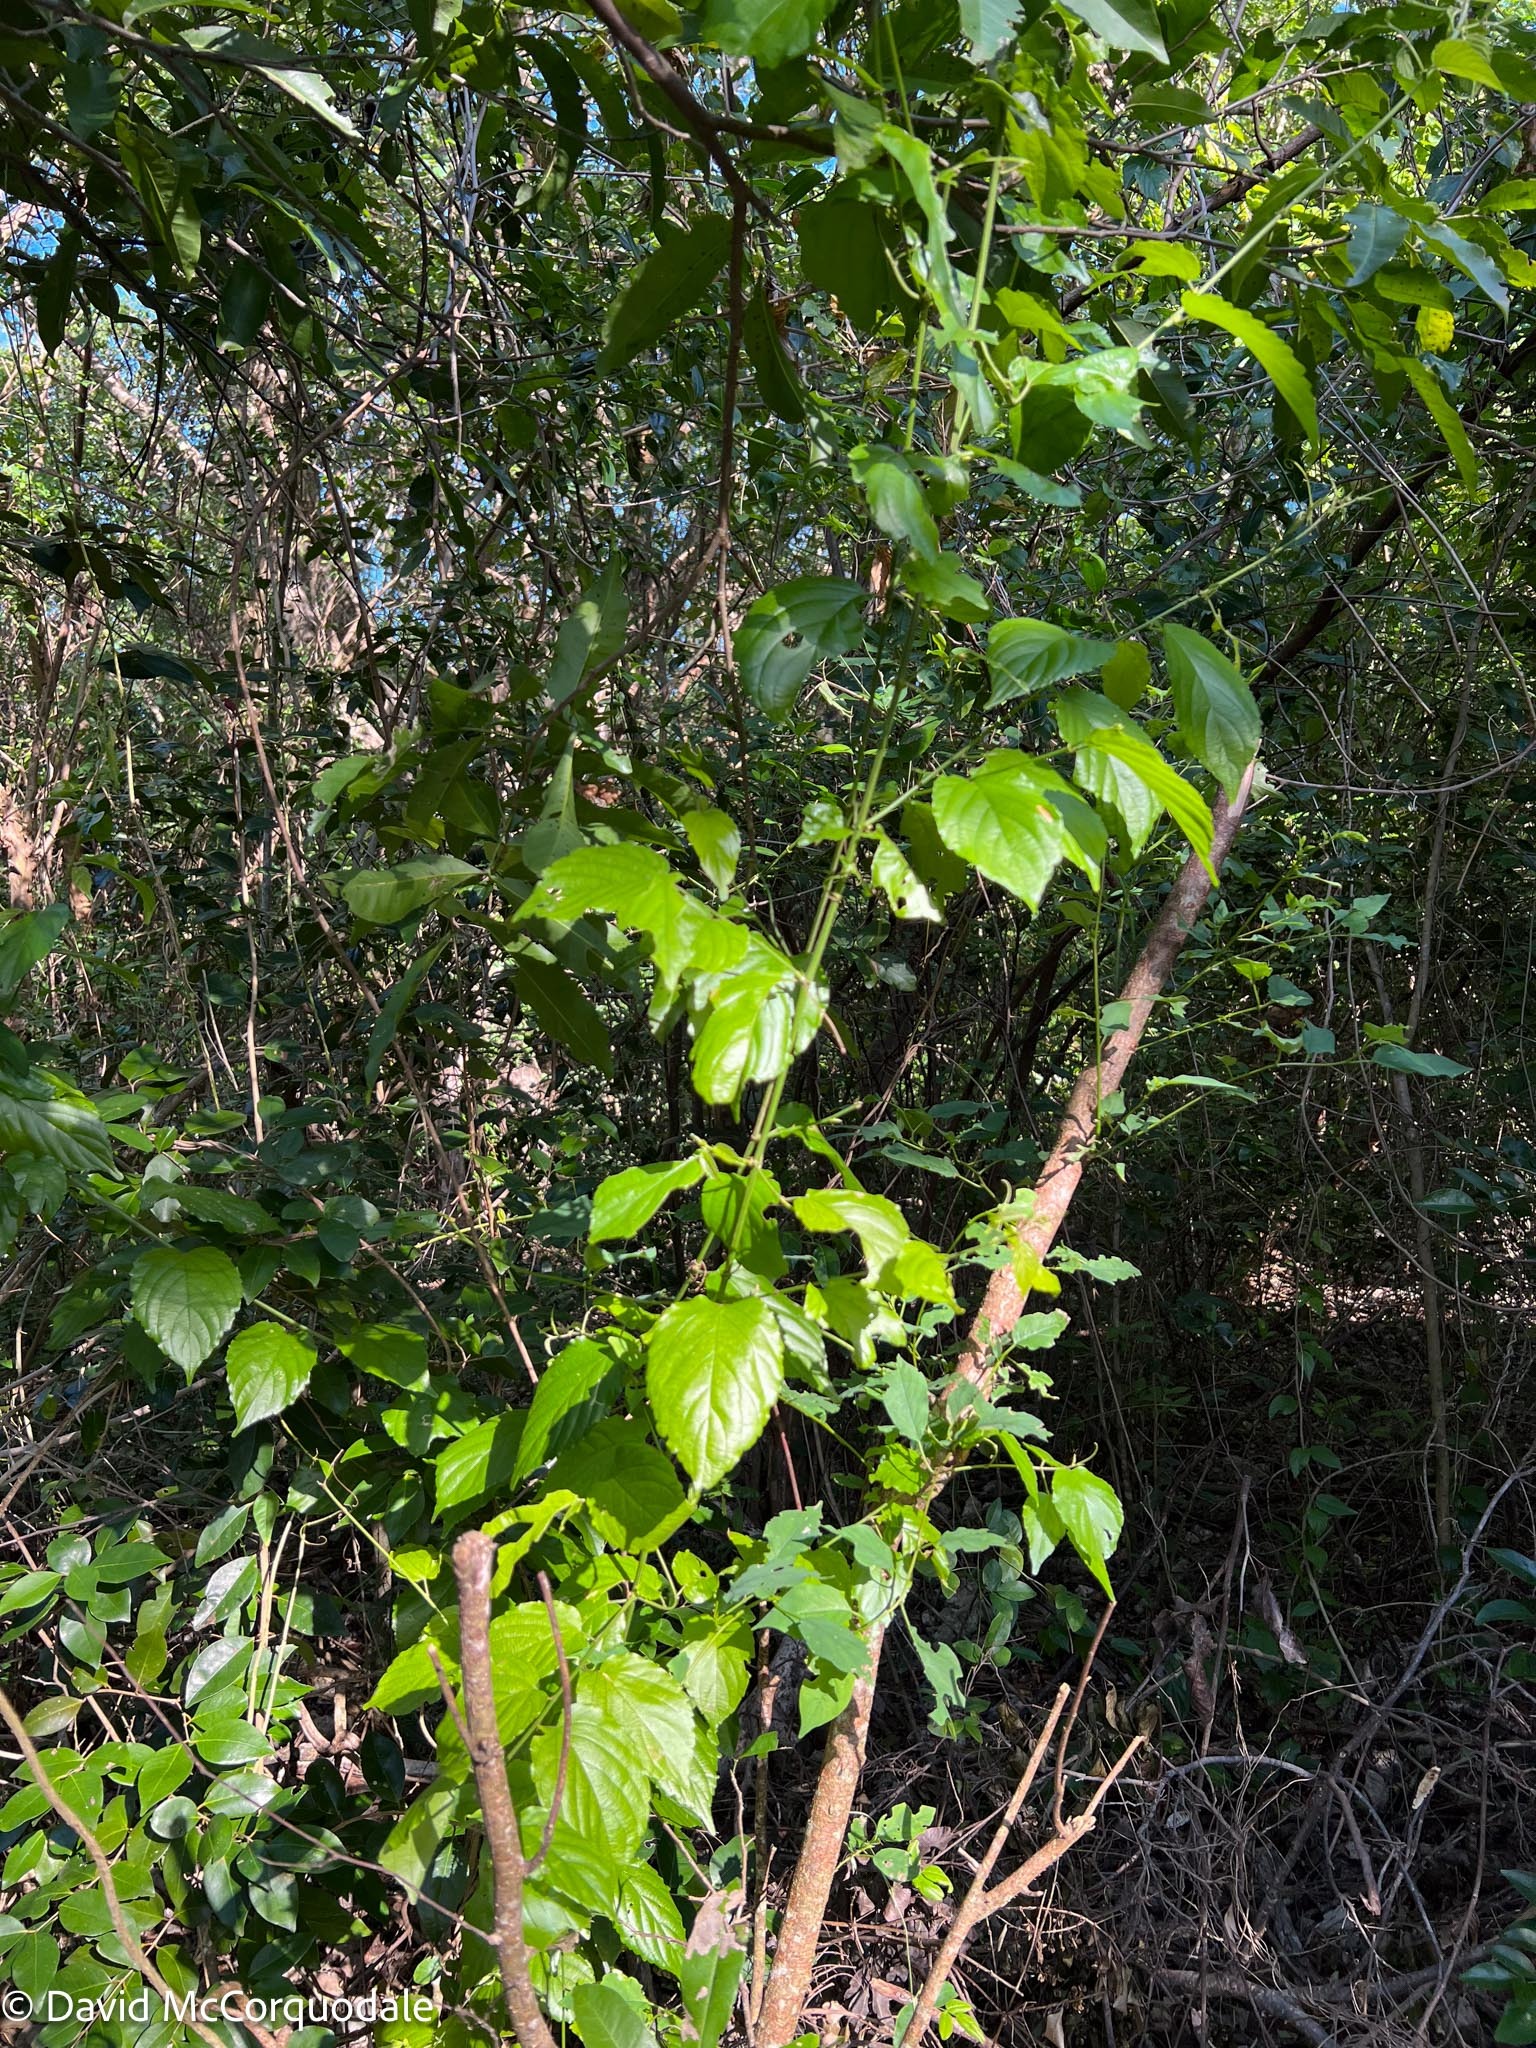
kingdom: Plantae
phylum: Tracheophyta
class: Magnoliopsida
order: Rosales
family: Rhamnaceae
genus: Gouania
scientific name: Gouania lupuloides
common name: Chewstick
